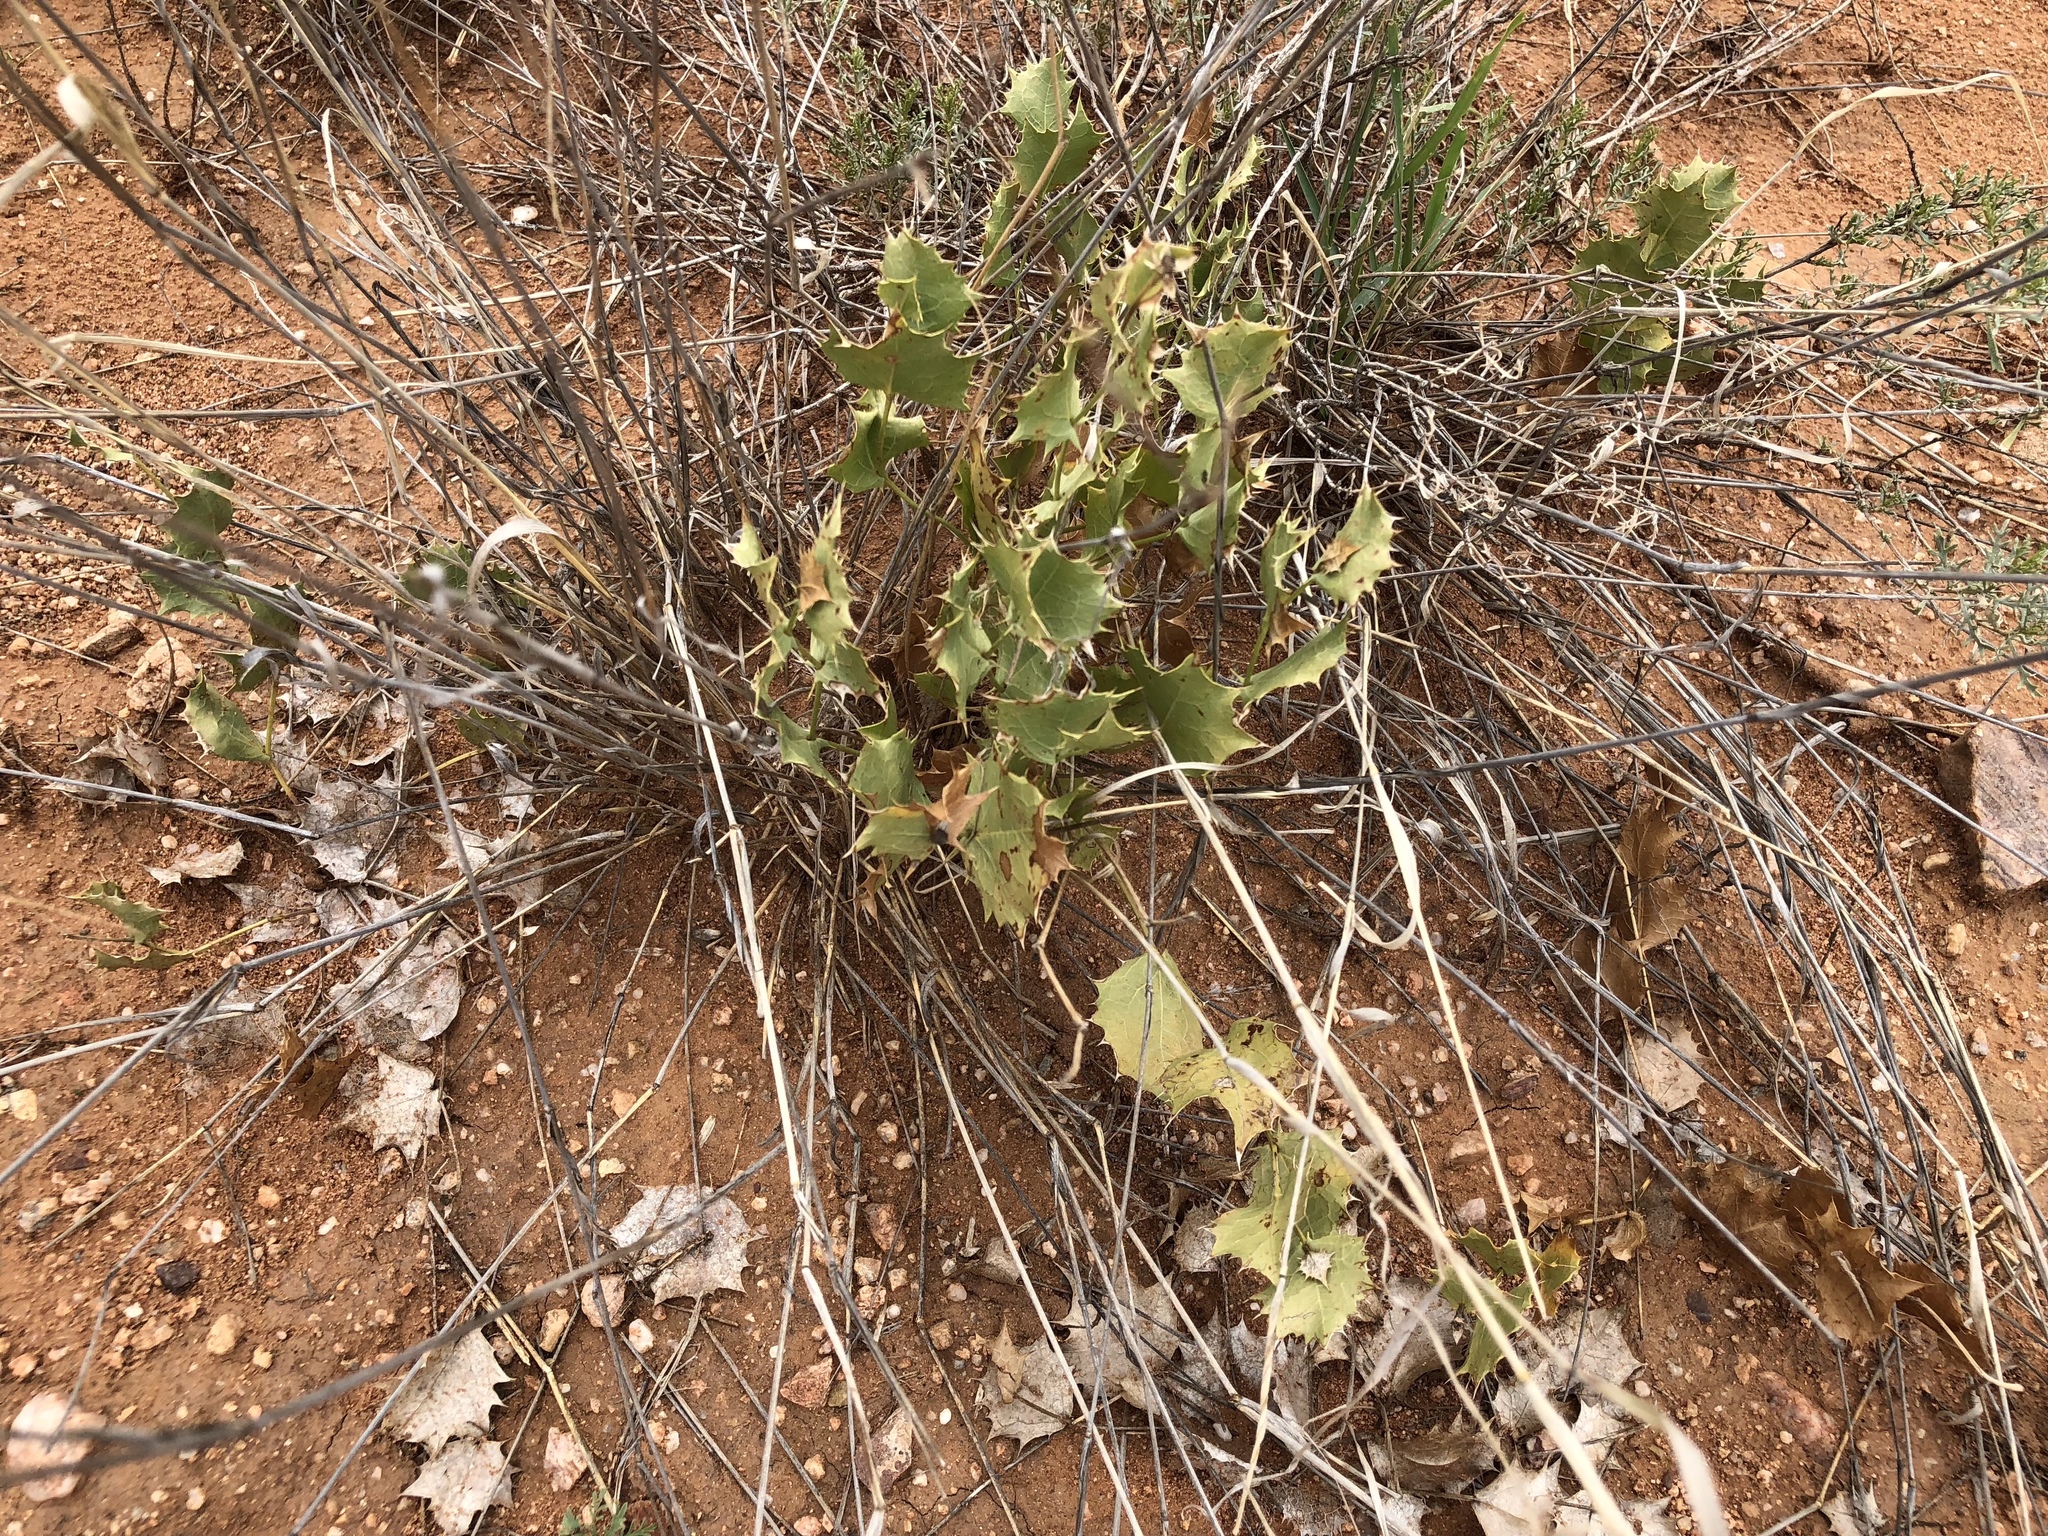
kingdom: Plantae
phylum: Tracheophyta
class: Magnoliopsida
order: Asterales
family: Asteraceae
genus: Acourtia
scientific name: Acourtia nana
